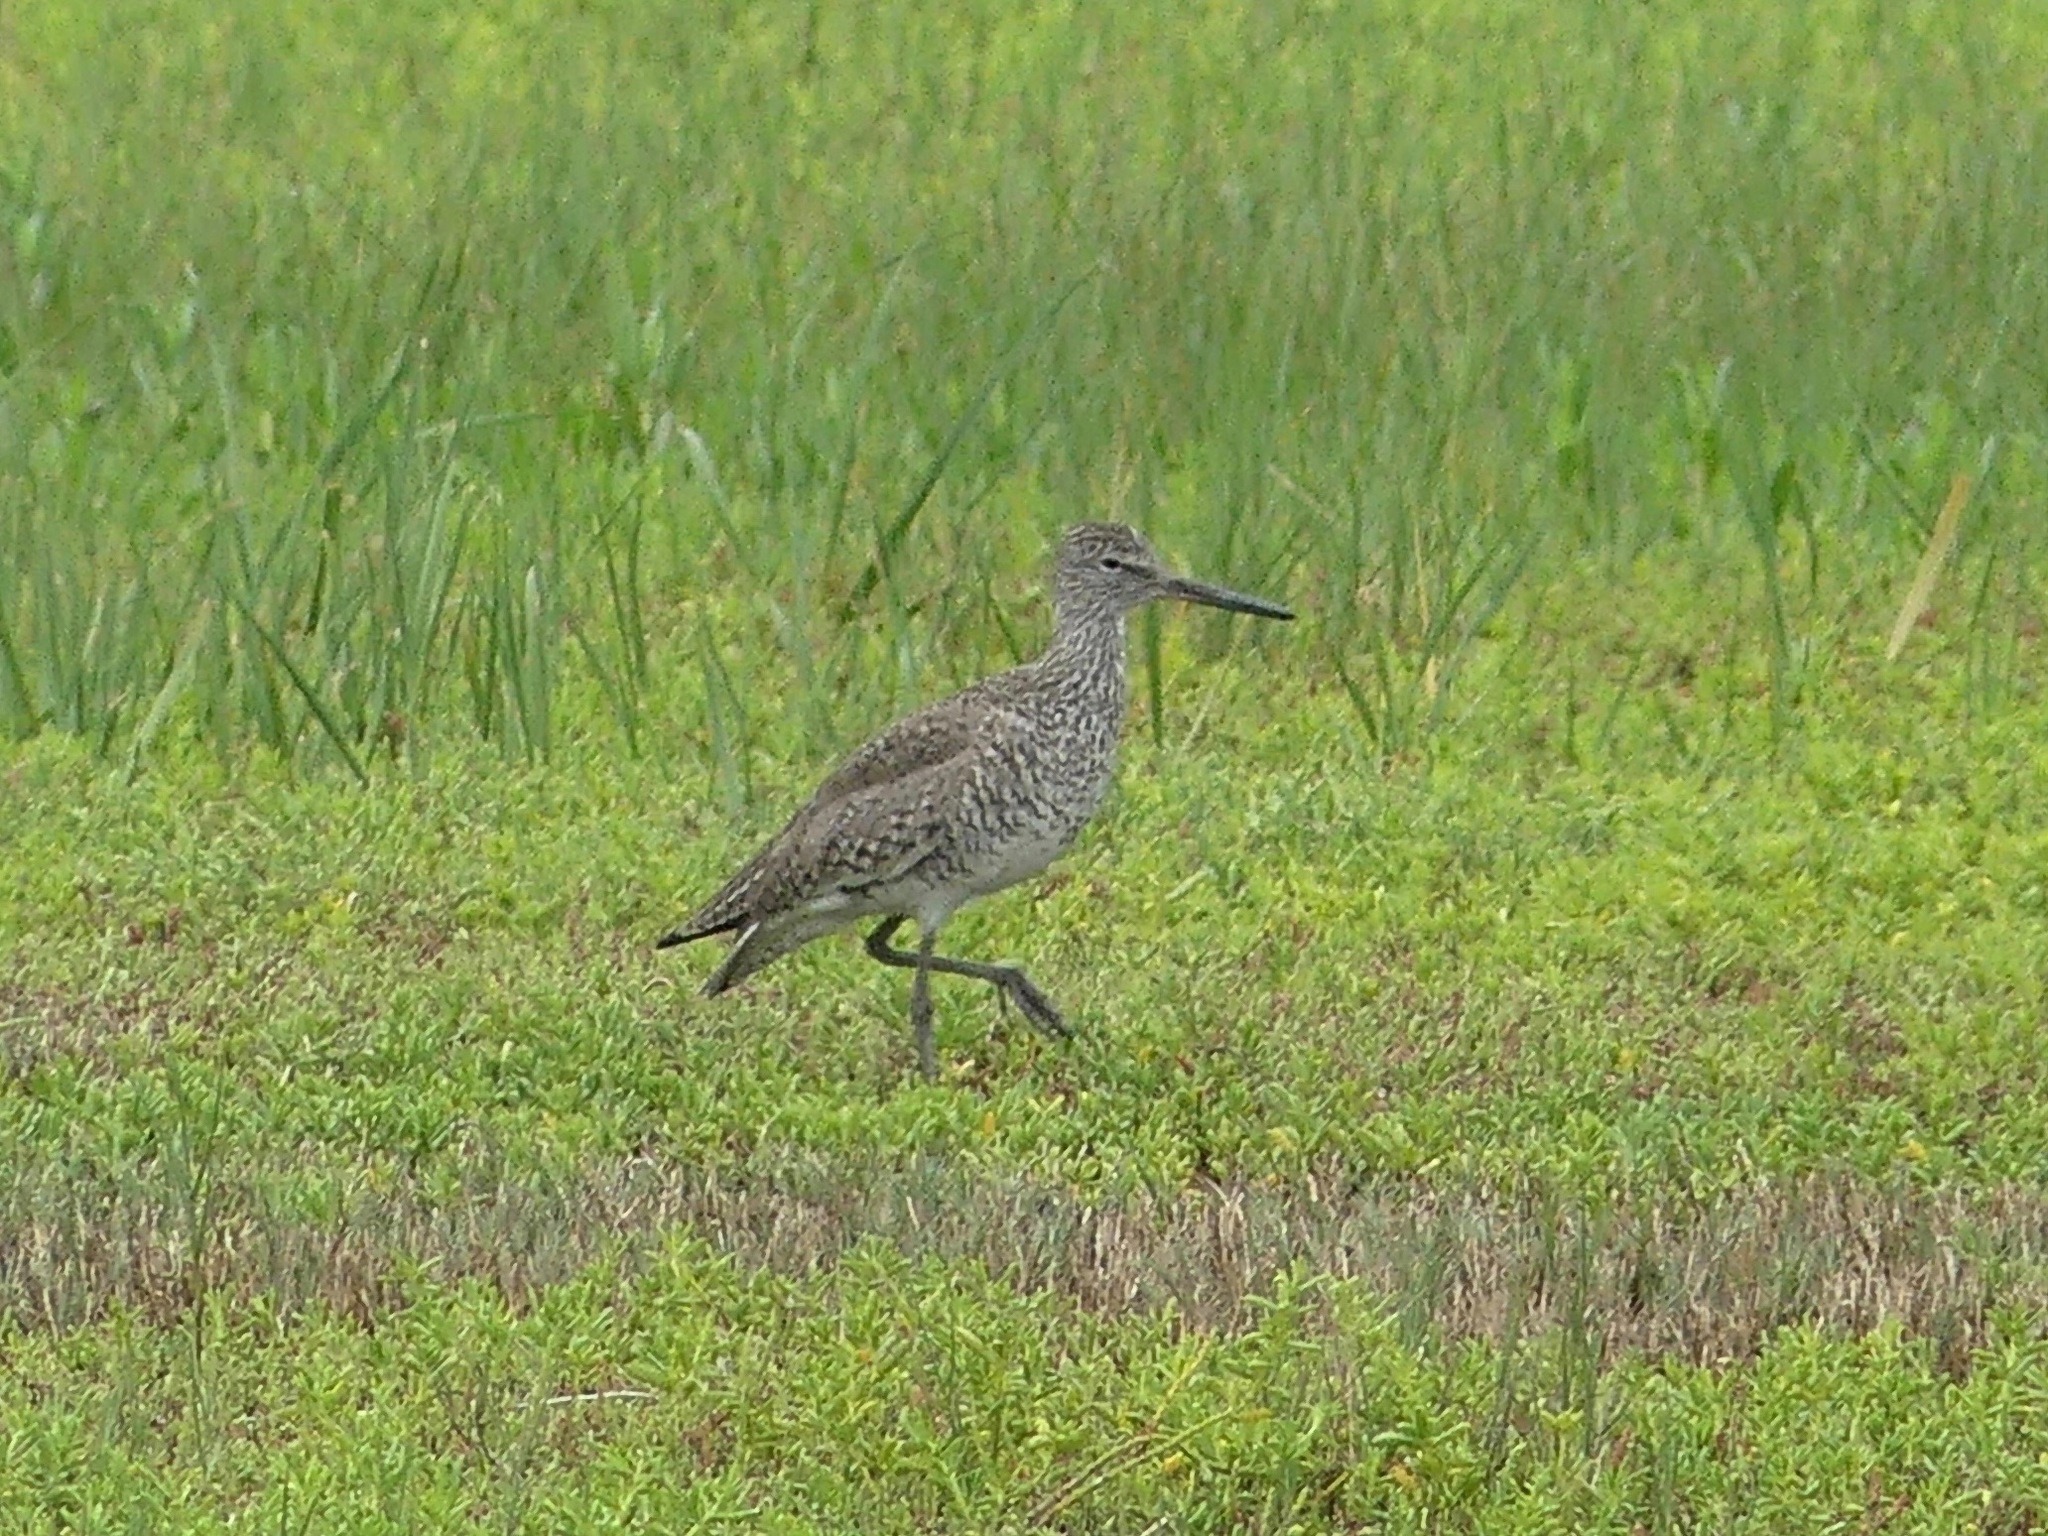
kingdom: Animalia
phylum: Chordata
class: Aves
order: Charadriiformes
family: Scolopacidae
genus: Tringa
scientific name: Tringa semipalmata
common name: Willet
